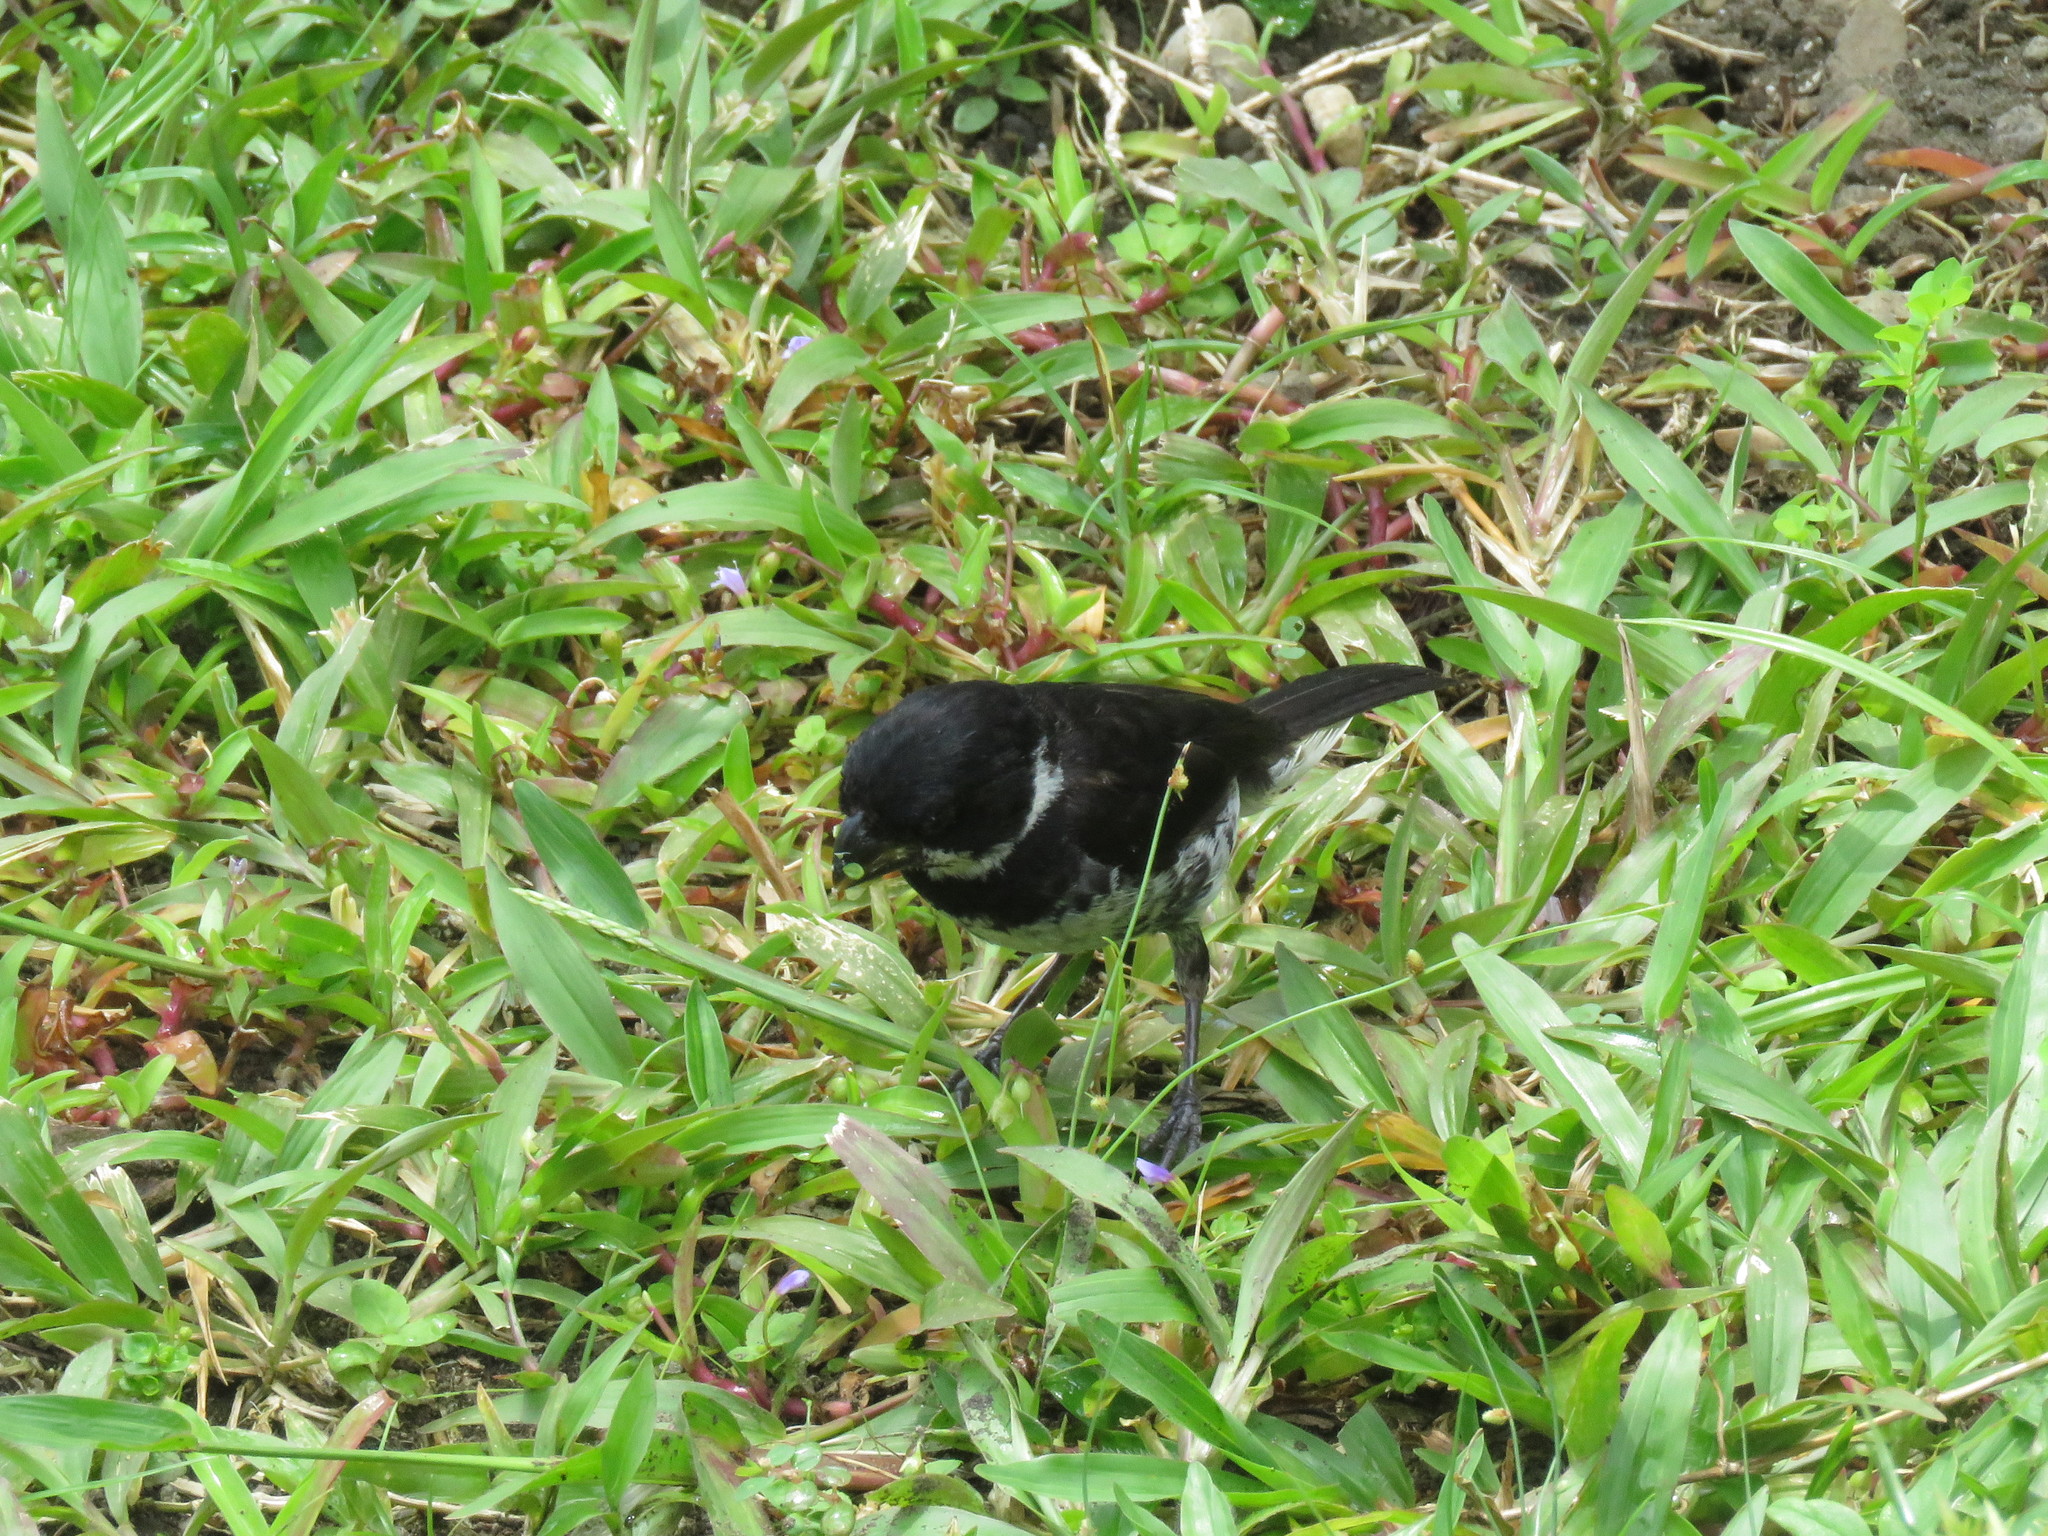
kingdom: Animalia
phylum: Chordata
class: Aves
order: Passeriformes
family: Thraupidae
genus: Sporophila
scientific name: Sporophila corvina
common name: Variable seedeater
